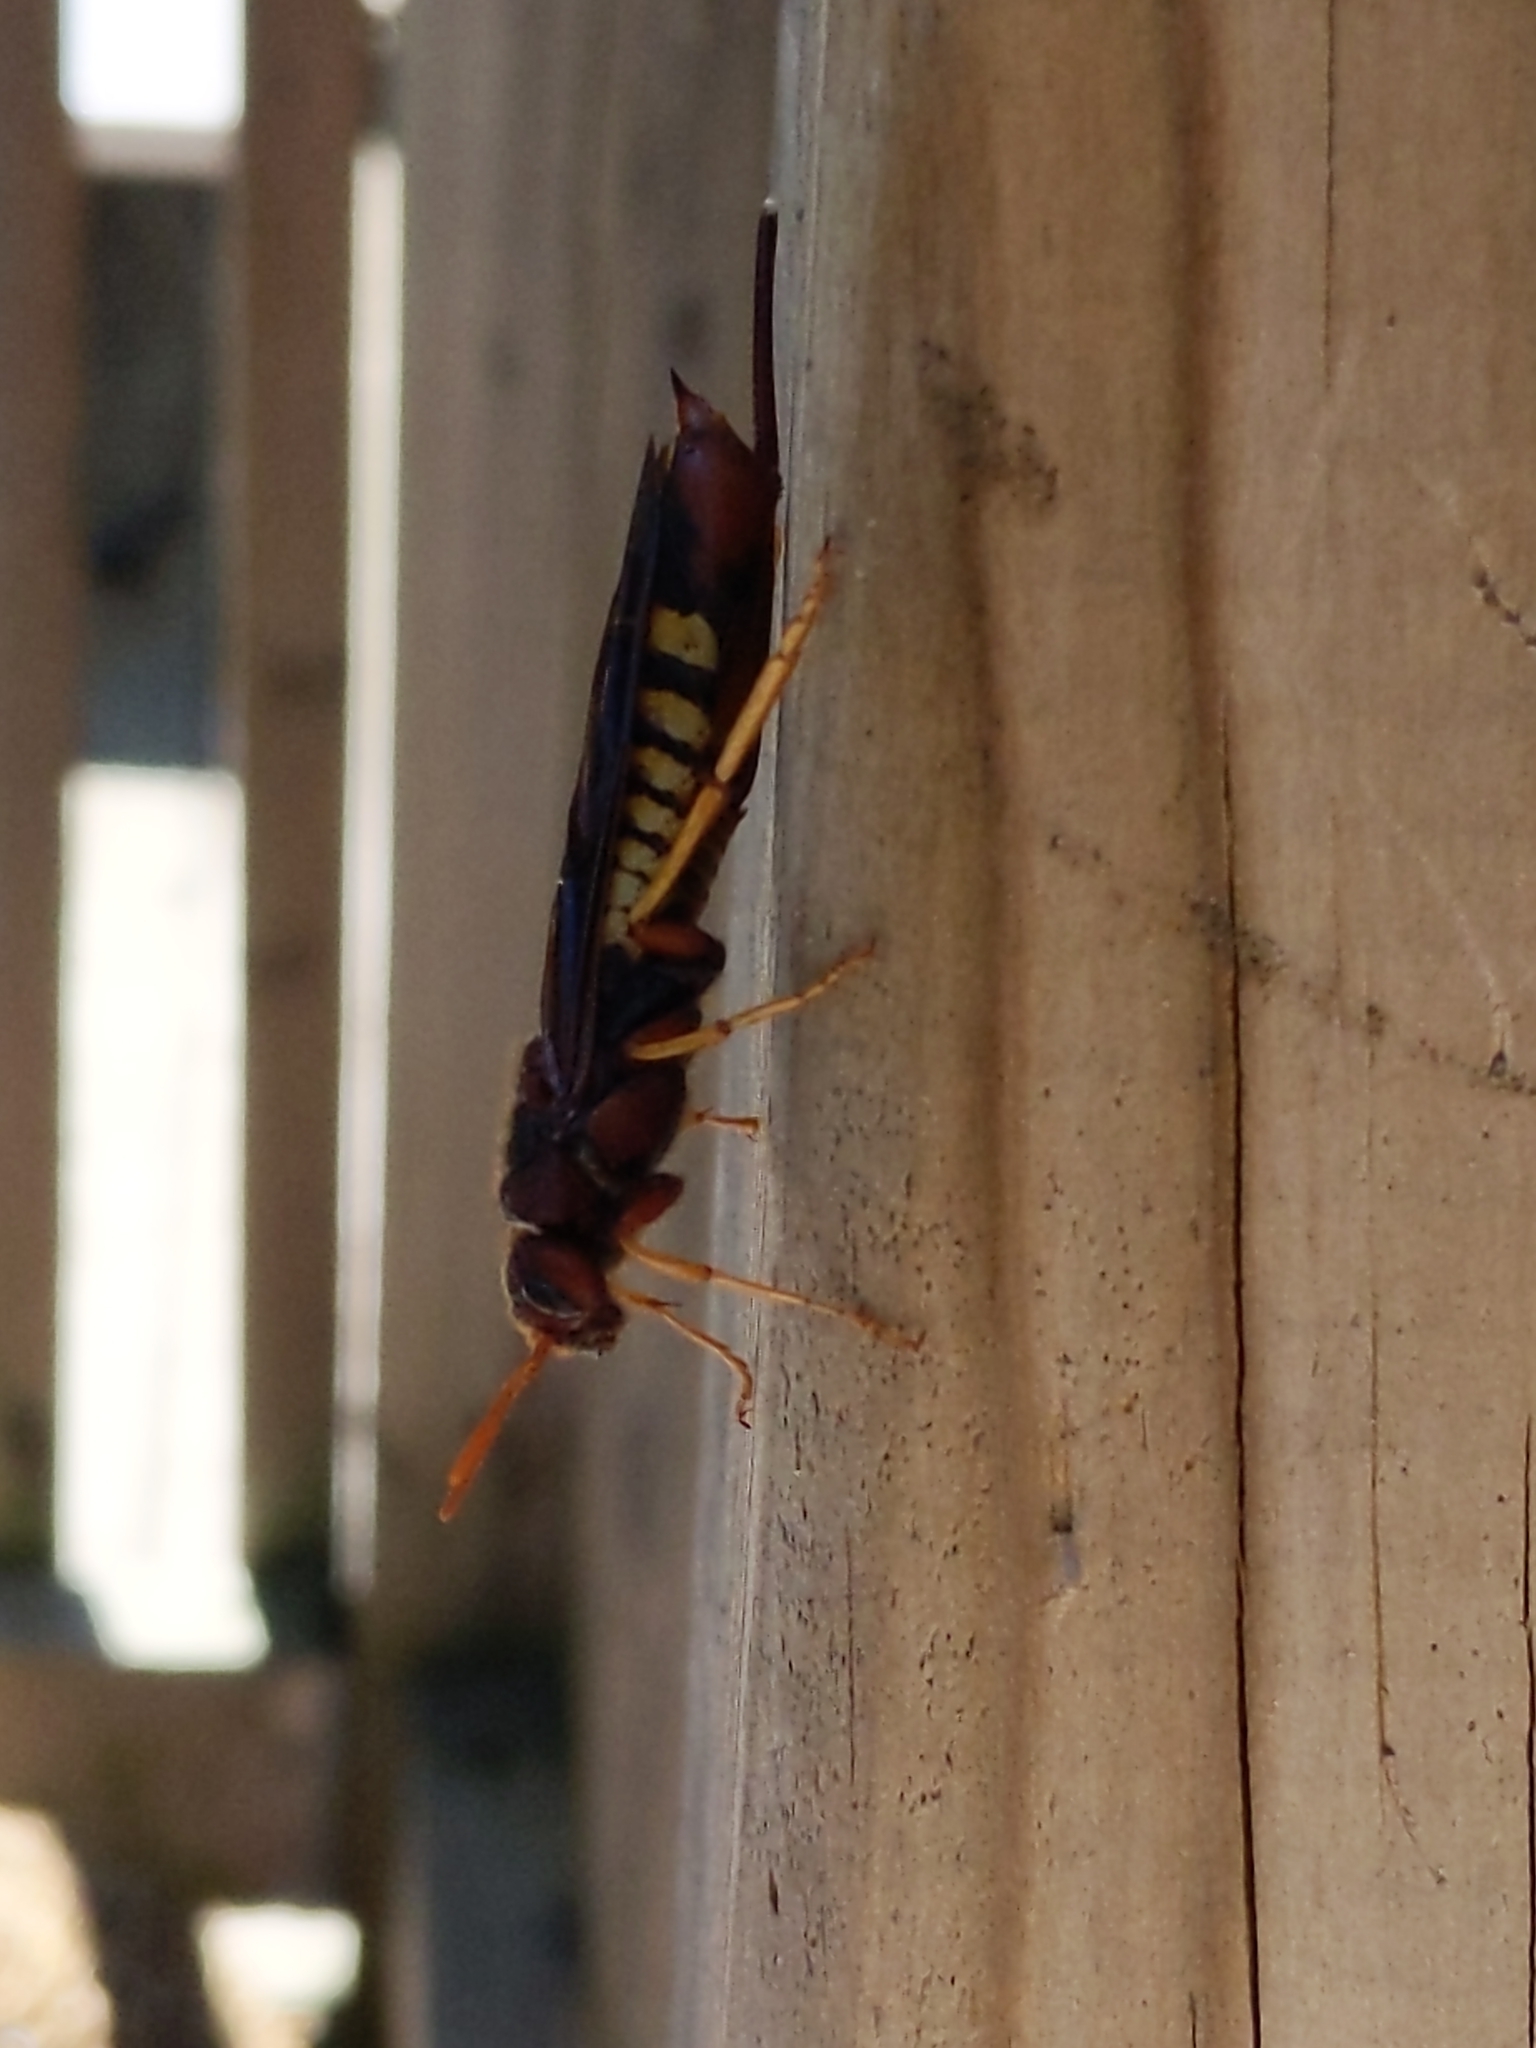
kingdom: Animalia
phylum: Arthropoda
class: Insecta
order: Hymenoptera
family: Siricidae
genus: Tremex
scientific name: Tremex columba
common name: Wasp
